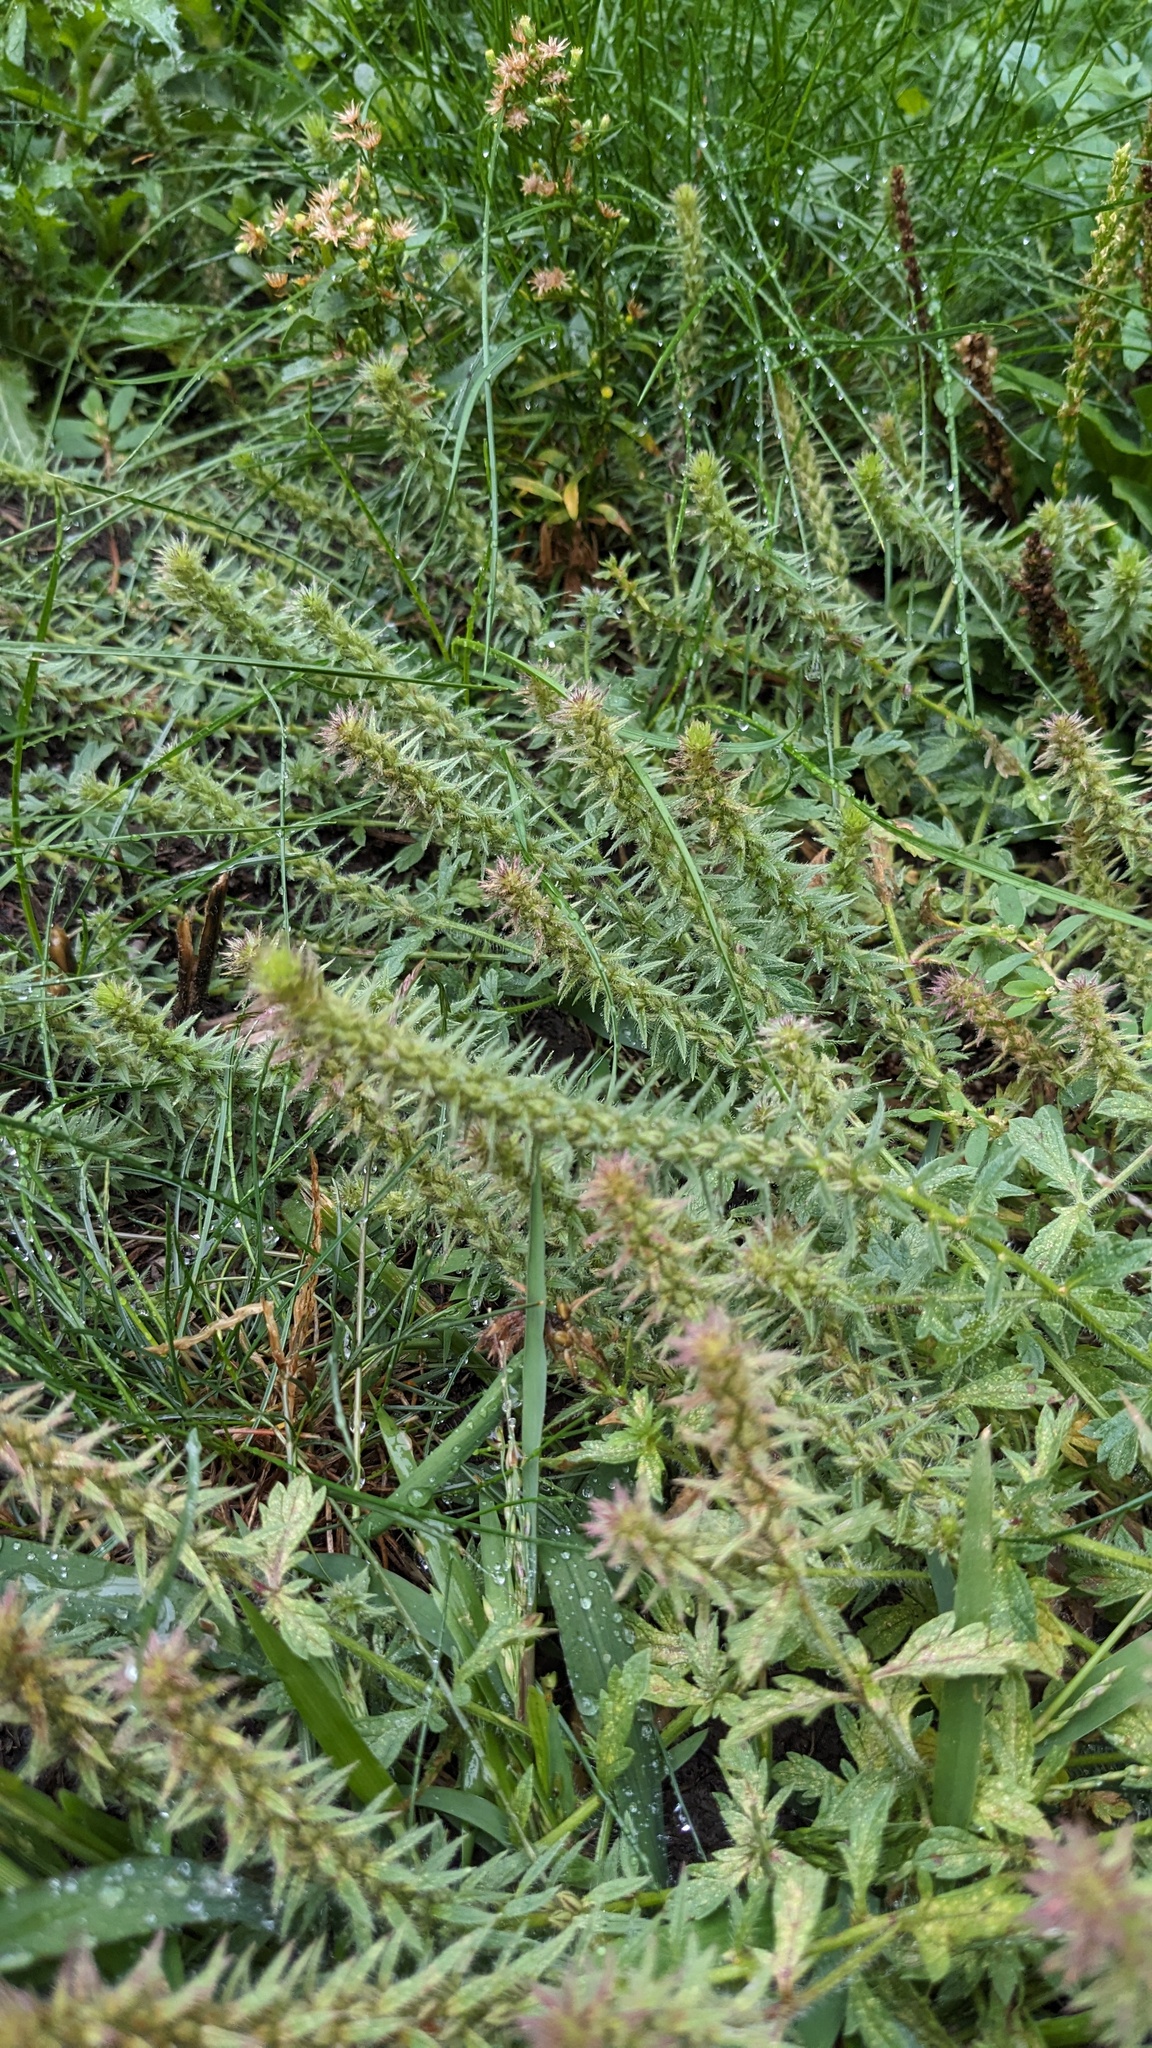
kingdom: Plantae
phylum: Tracheophyta
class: Magnoliopsida
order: Lamiales
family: Verbenaceae
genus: Verbena
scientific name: Verbena bracteata
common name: Bracted vervain
